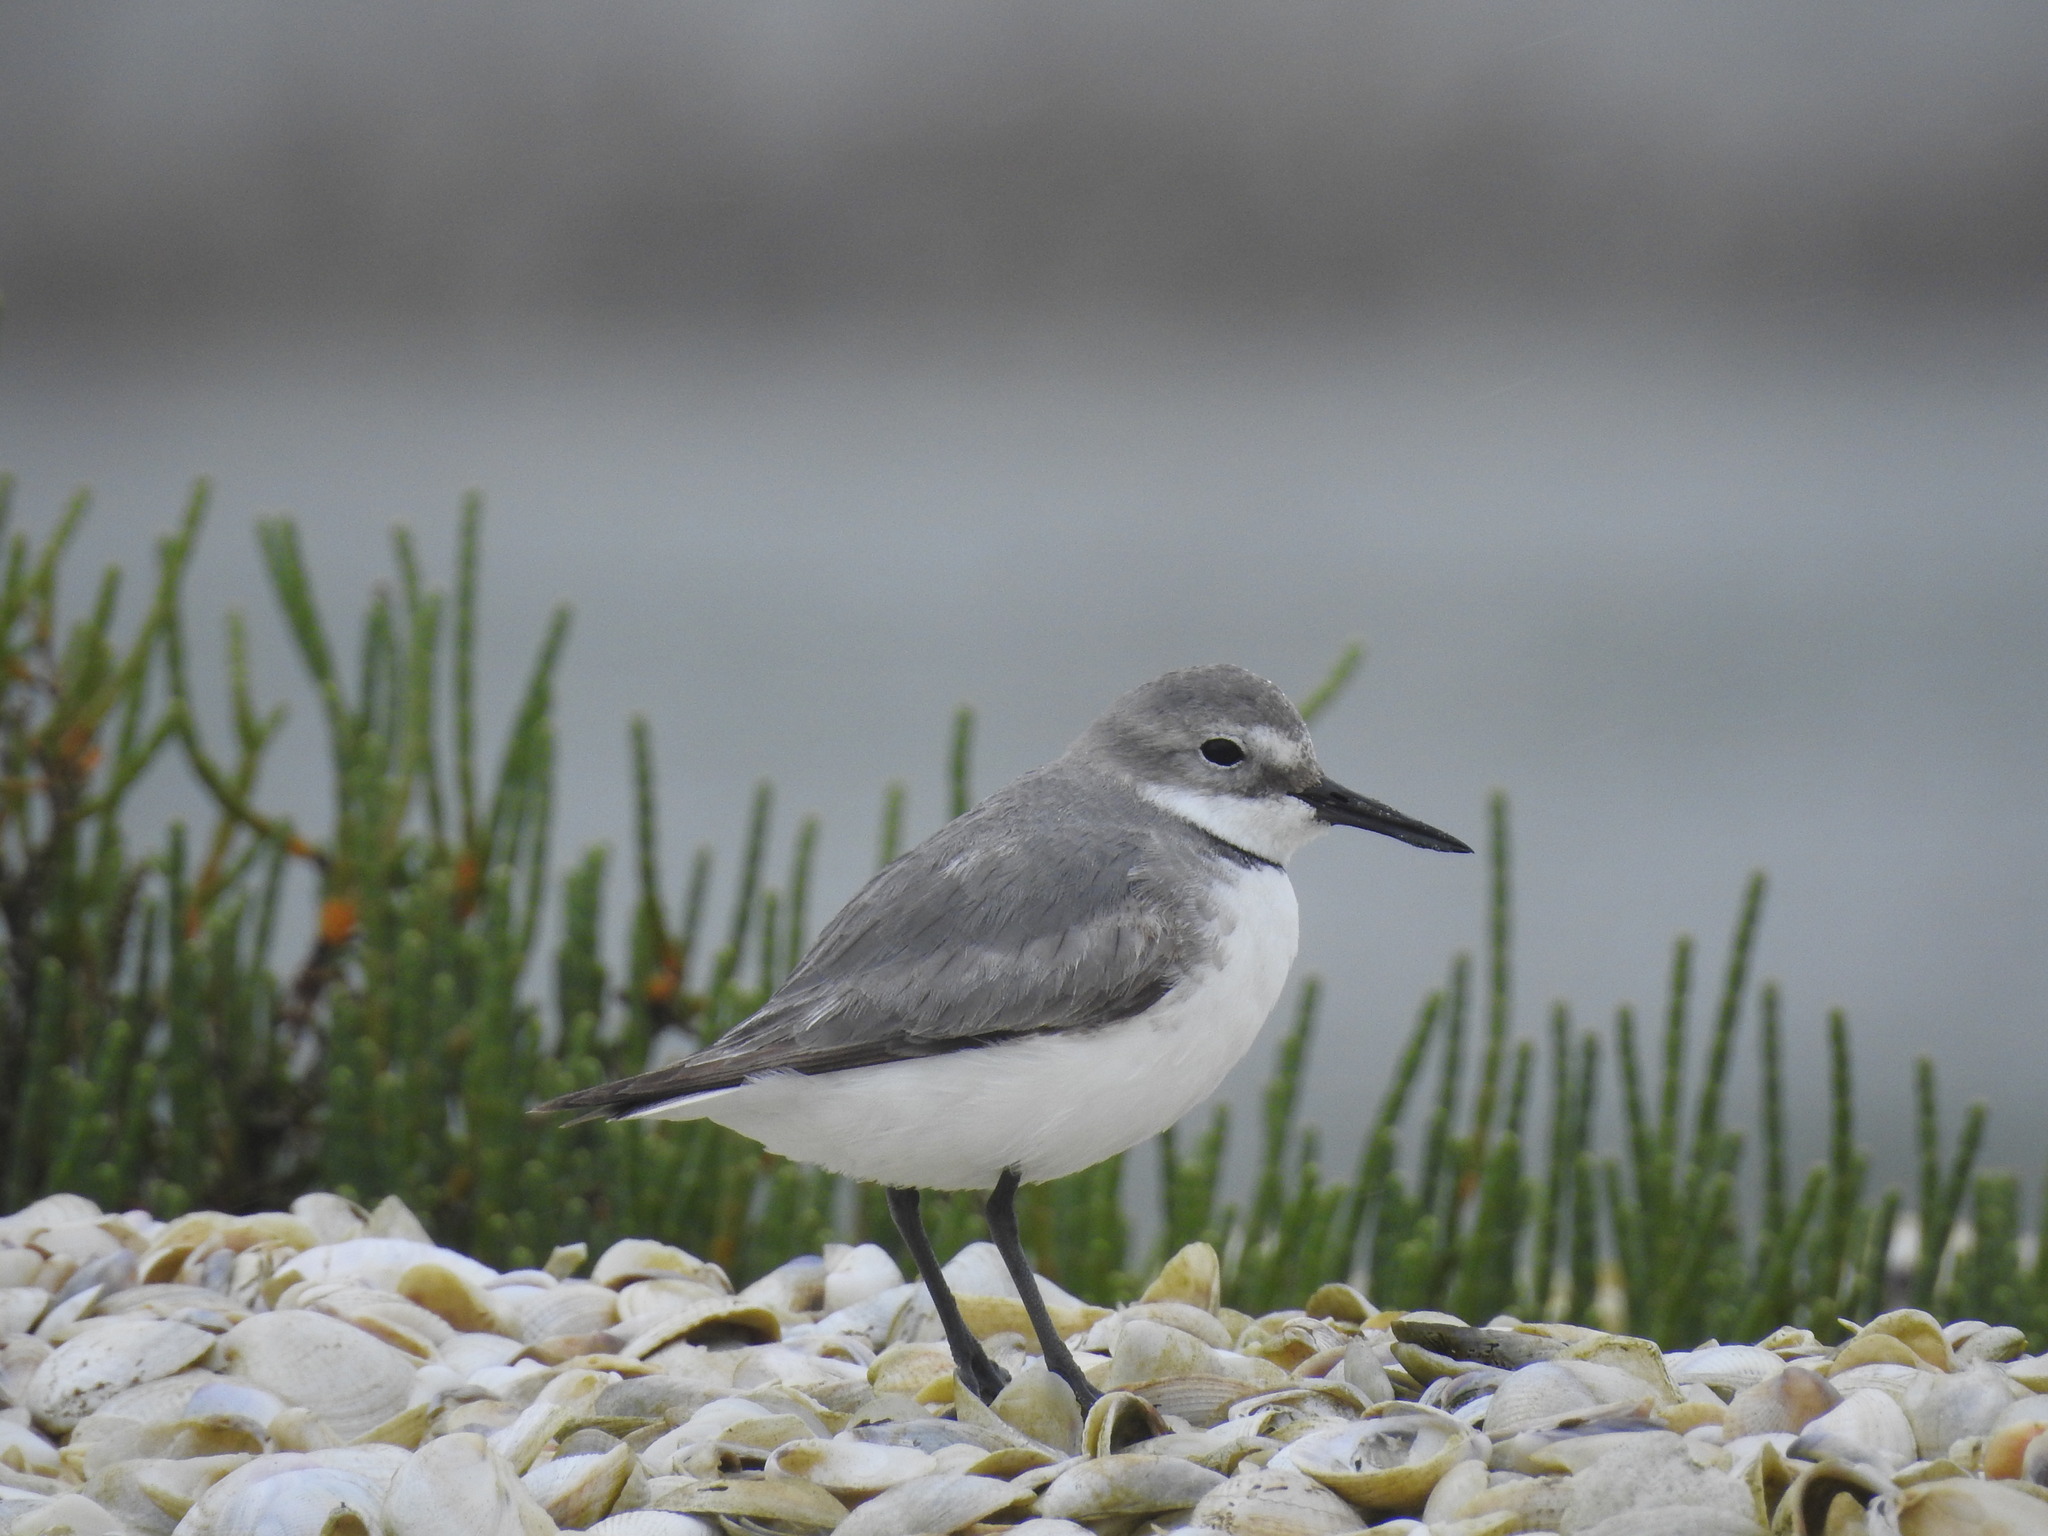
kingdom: Animalia
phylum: Chordata
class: Aves
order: Charadriiformes
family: Charadriidae
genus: Anarhynchus
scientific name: Anarhynchus frontalis
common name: Wrybill
